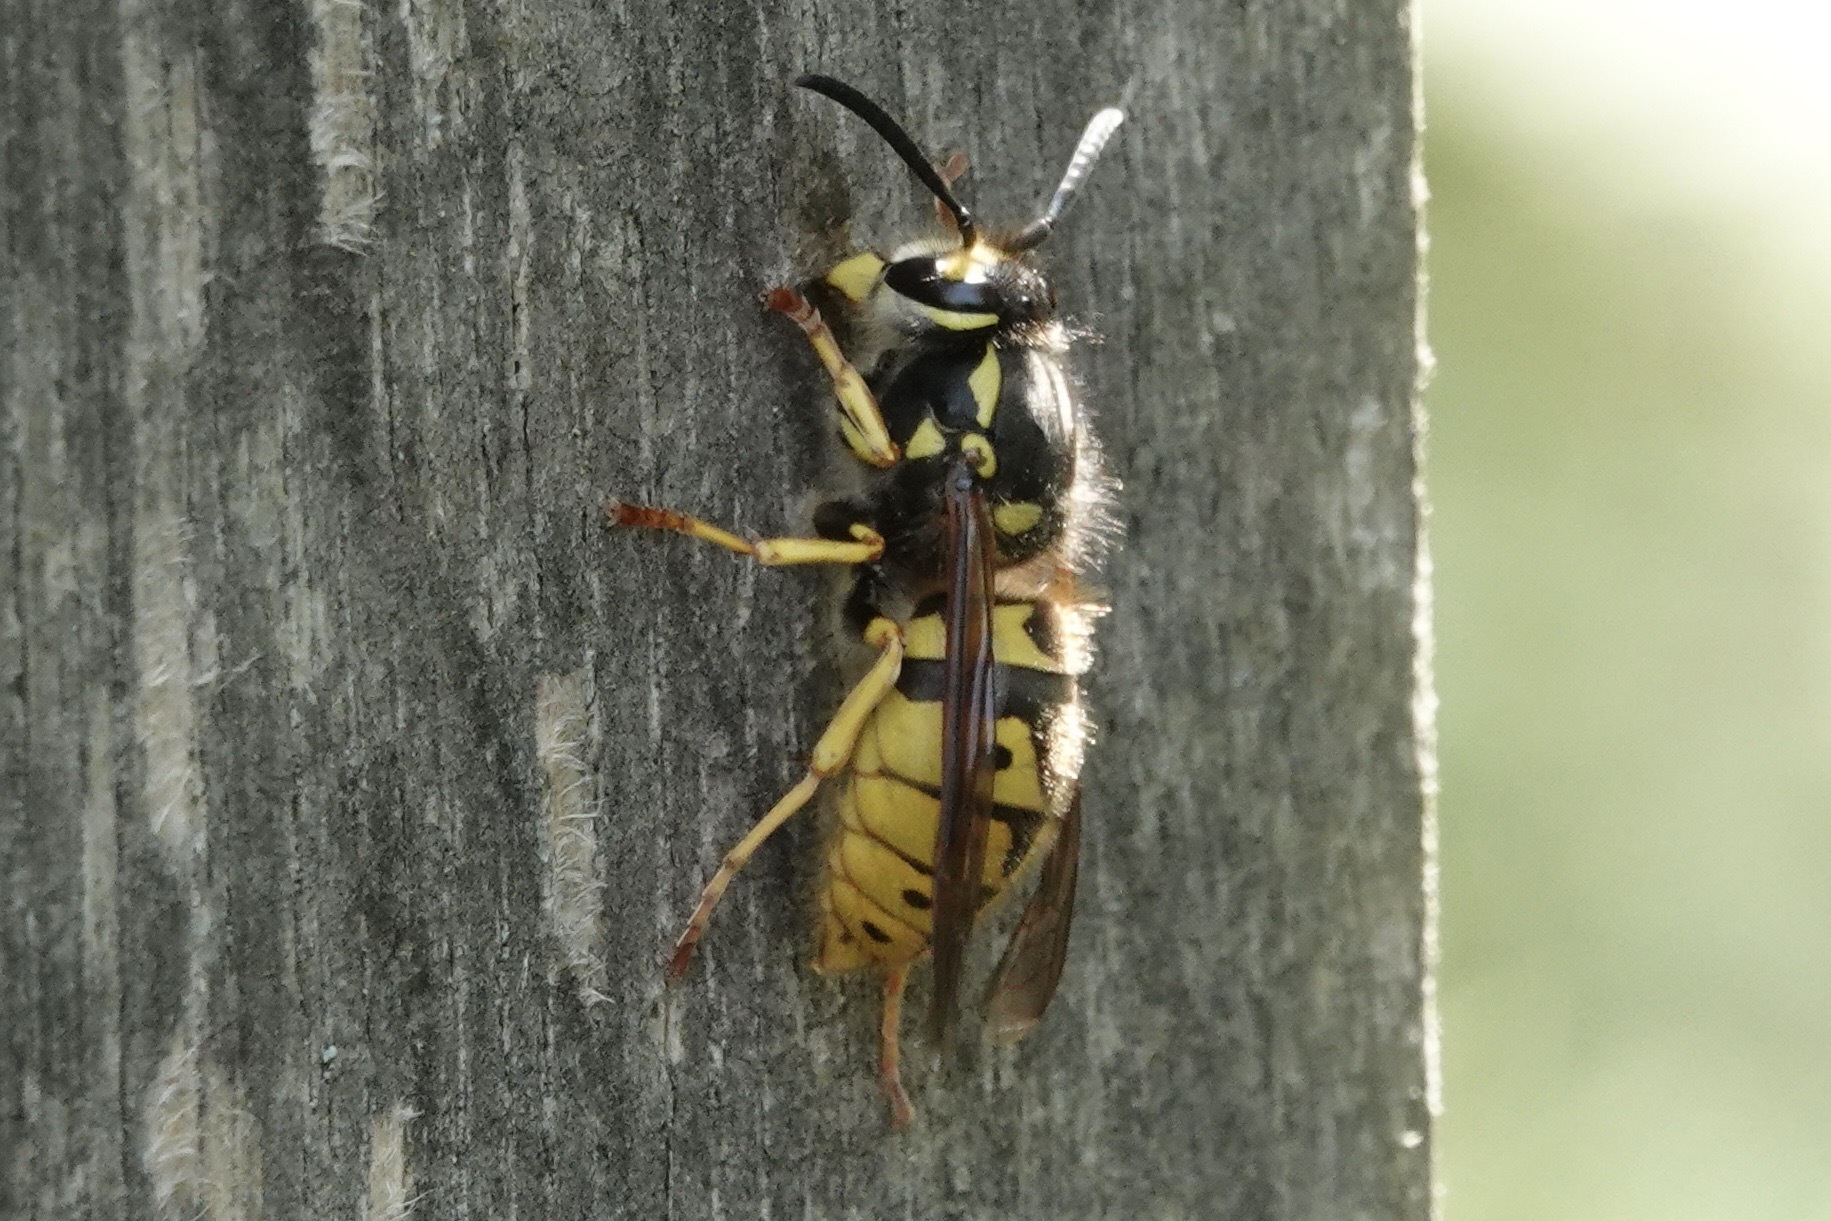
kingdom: Animalia
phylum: Arthropoda
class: Insecta
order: Hymenoptera
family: Vespidae
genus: Vespula
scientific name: Vespula germanica
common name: German wasp
